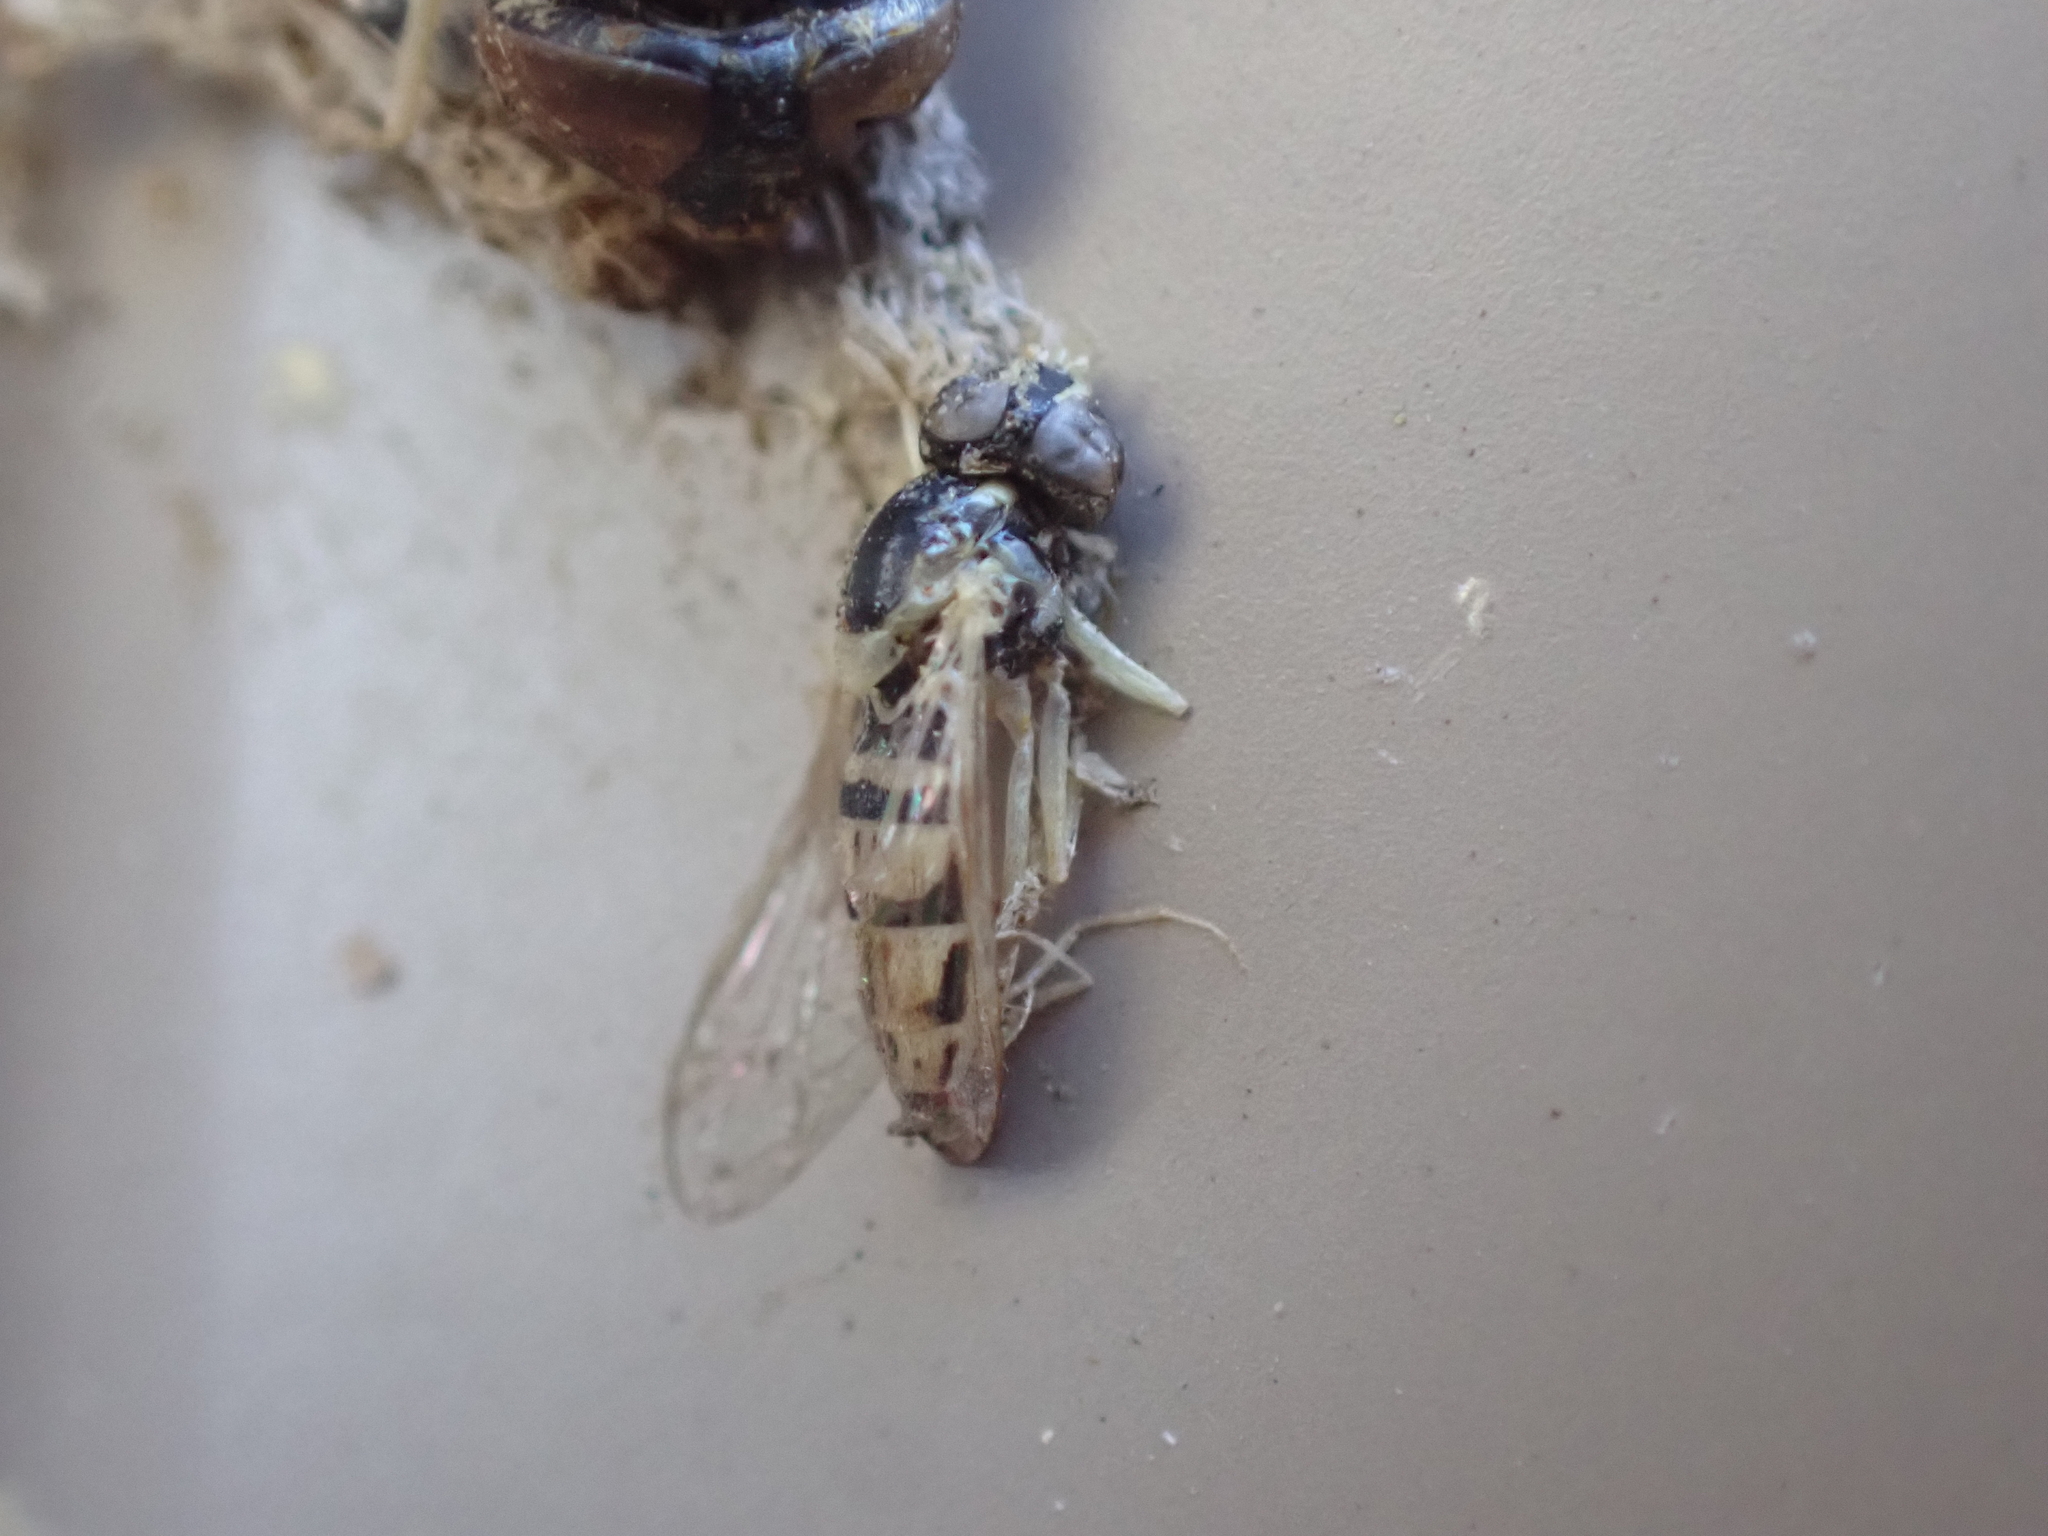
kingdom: Animalia
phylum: Arthropoda
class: Insecta
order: Diptera
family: Syrphidae
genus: Toxomerus
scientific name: Toxomerus marginatus
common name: Syrphid fly
